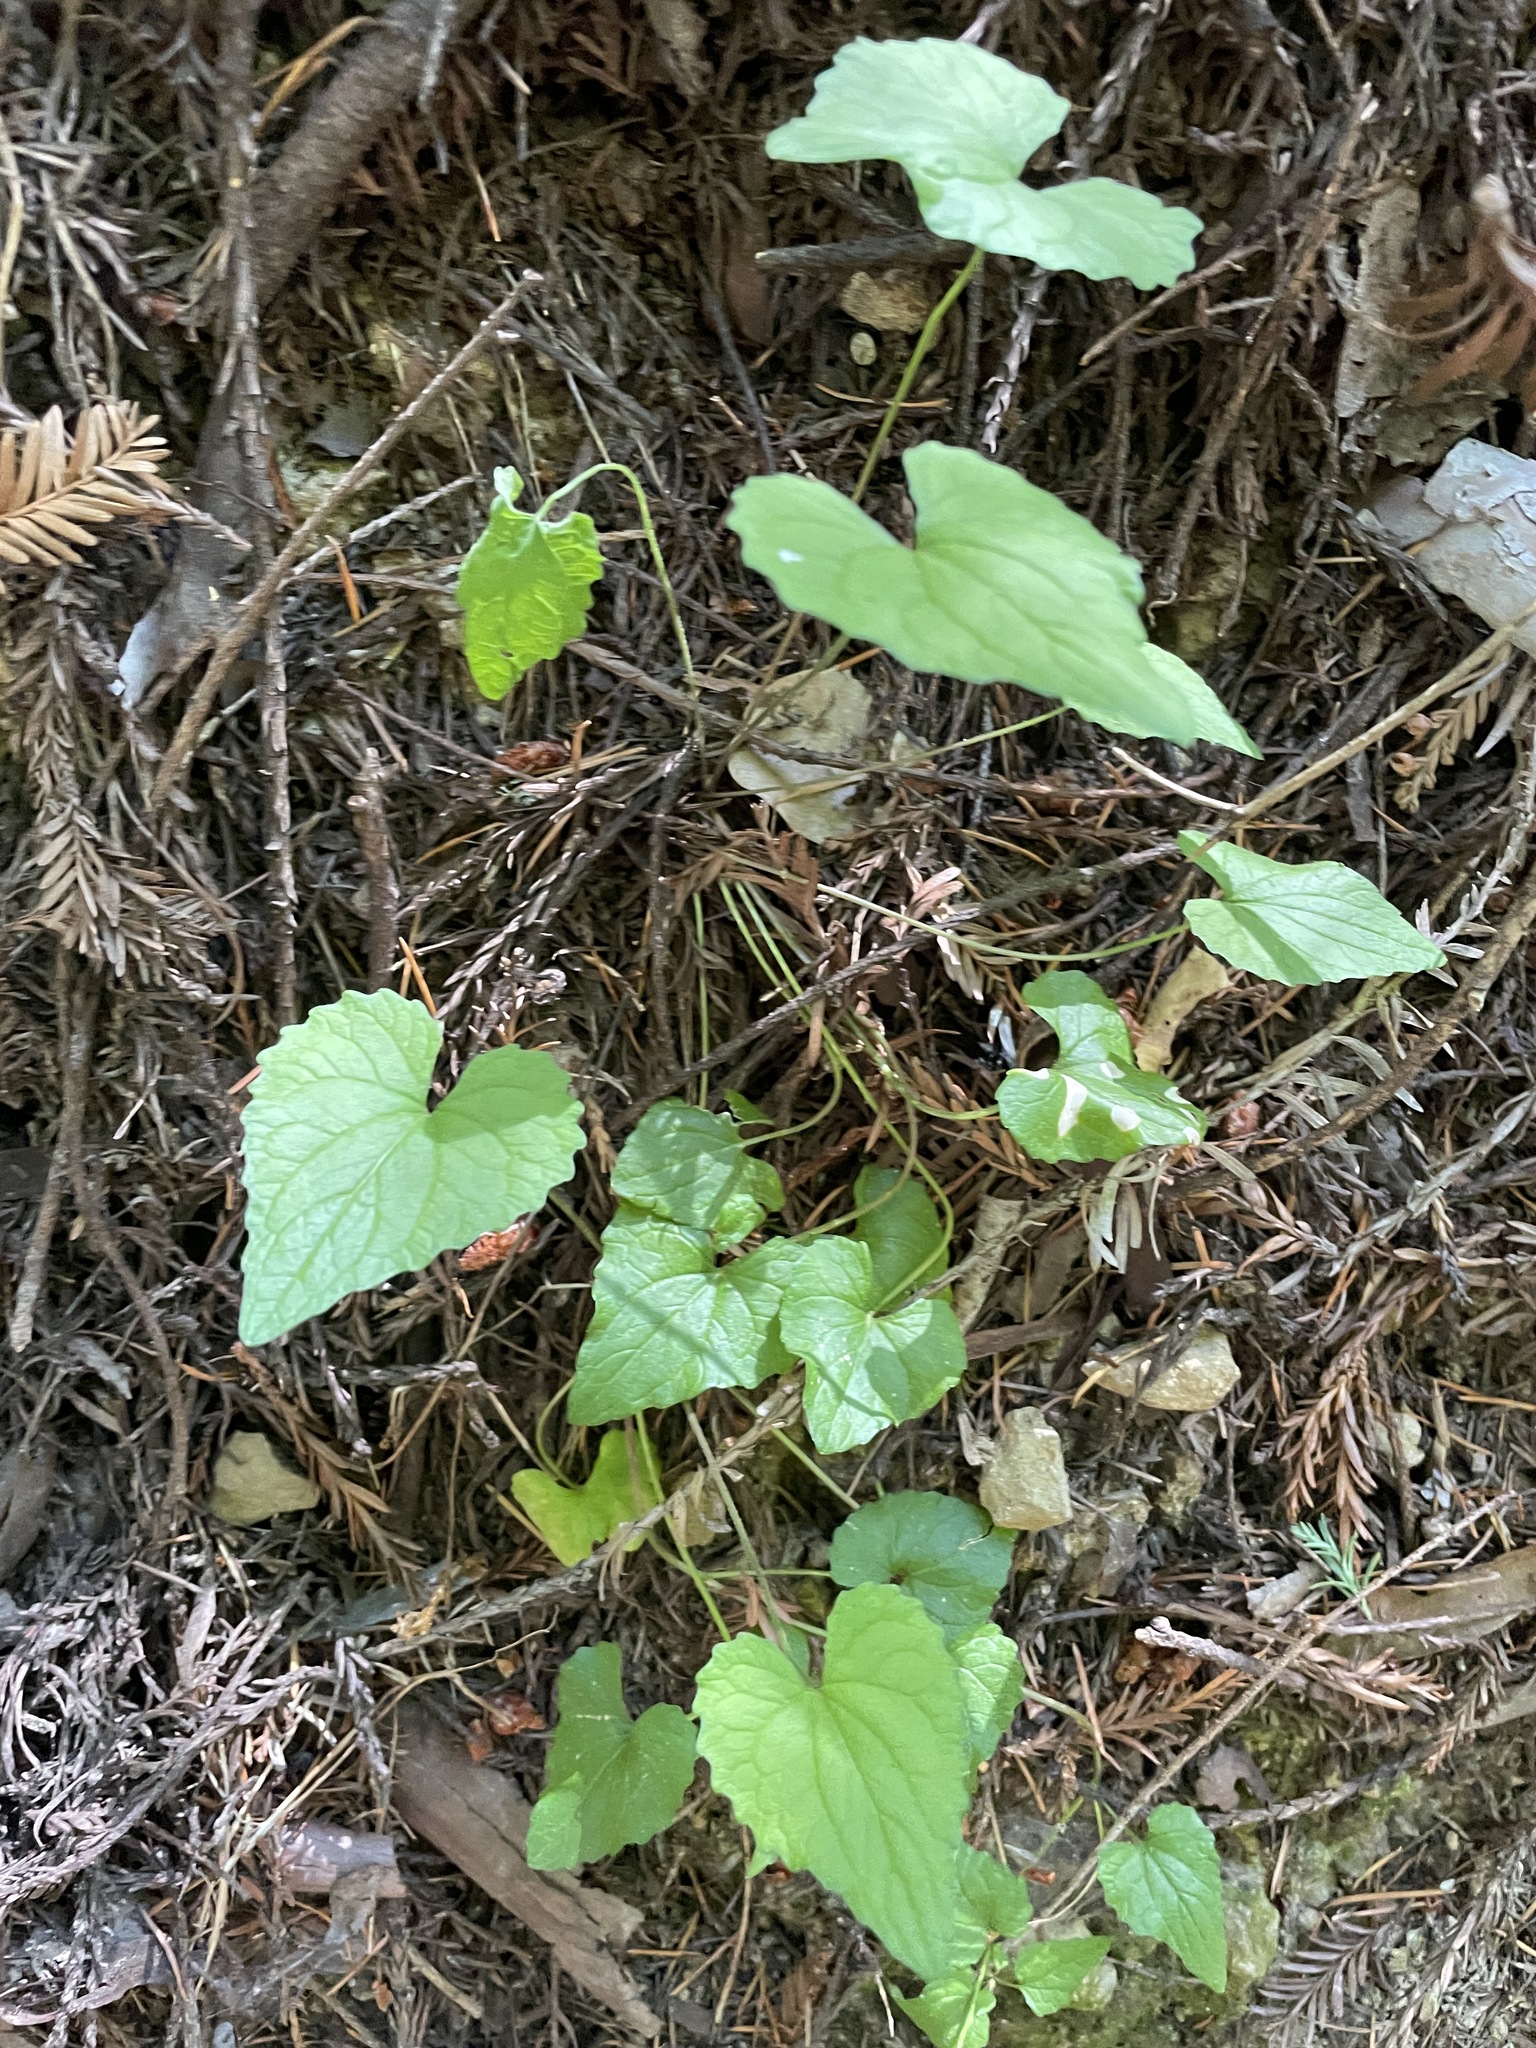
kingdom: Plantae
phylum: Tracheophyta
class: Magnoliopsida
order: Malpighiales
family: Violaceae
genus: Viola
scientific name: Viola ocellata
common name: Western heart's ease
